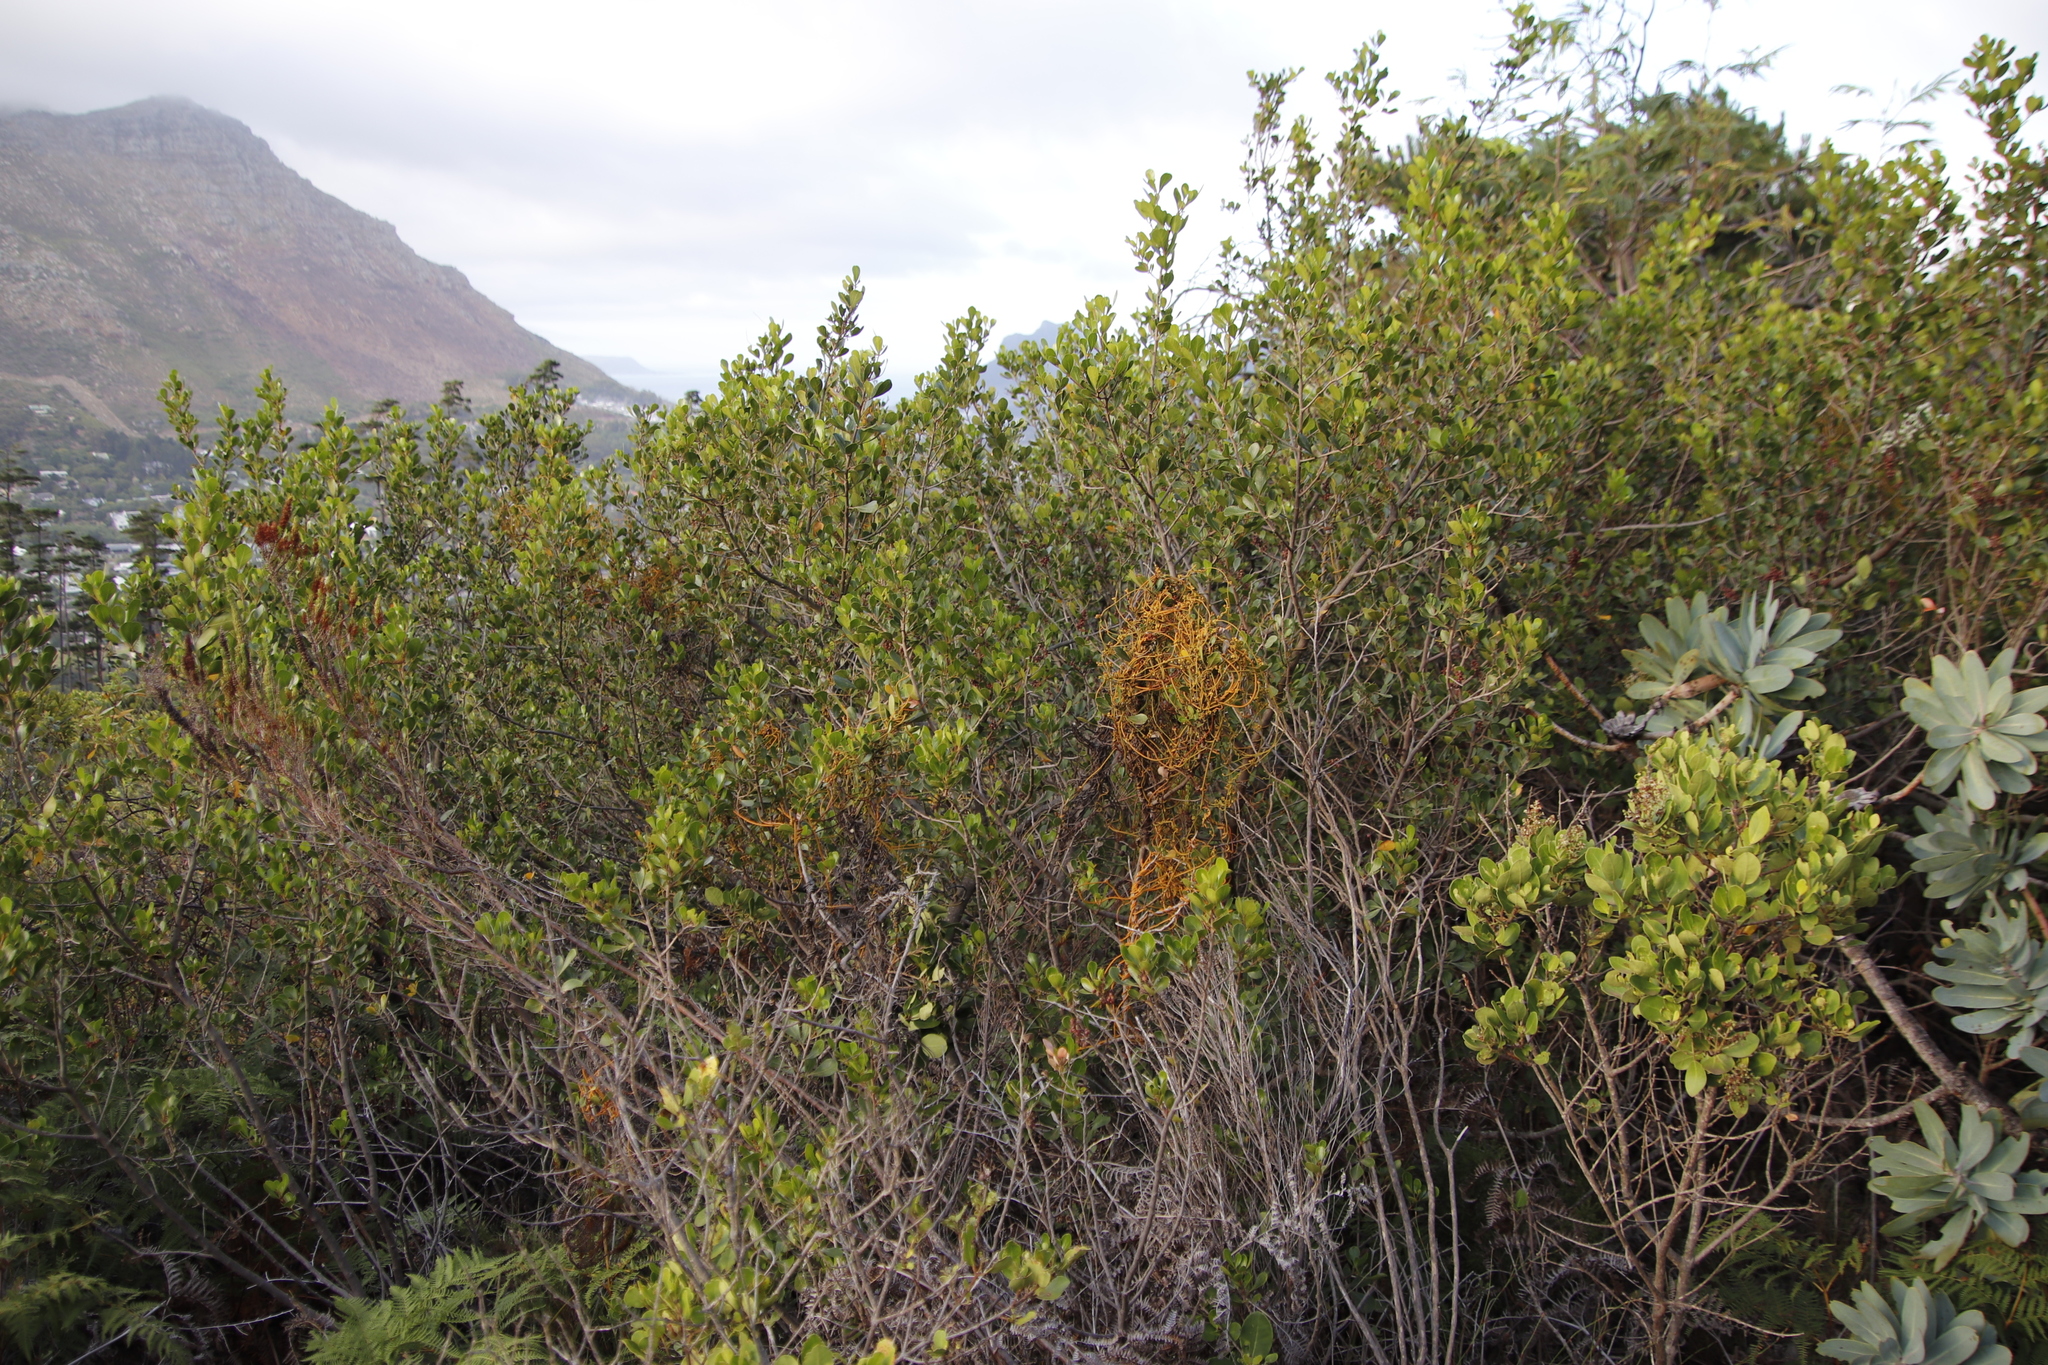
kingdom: Plantae
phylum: Tracheophyta
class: Magnoliopsida
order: Laurales
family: Lauraceae
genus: Cassytha
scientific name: Cassytha ciliolata
